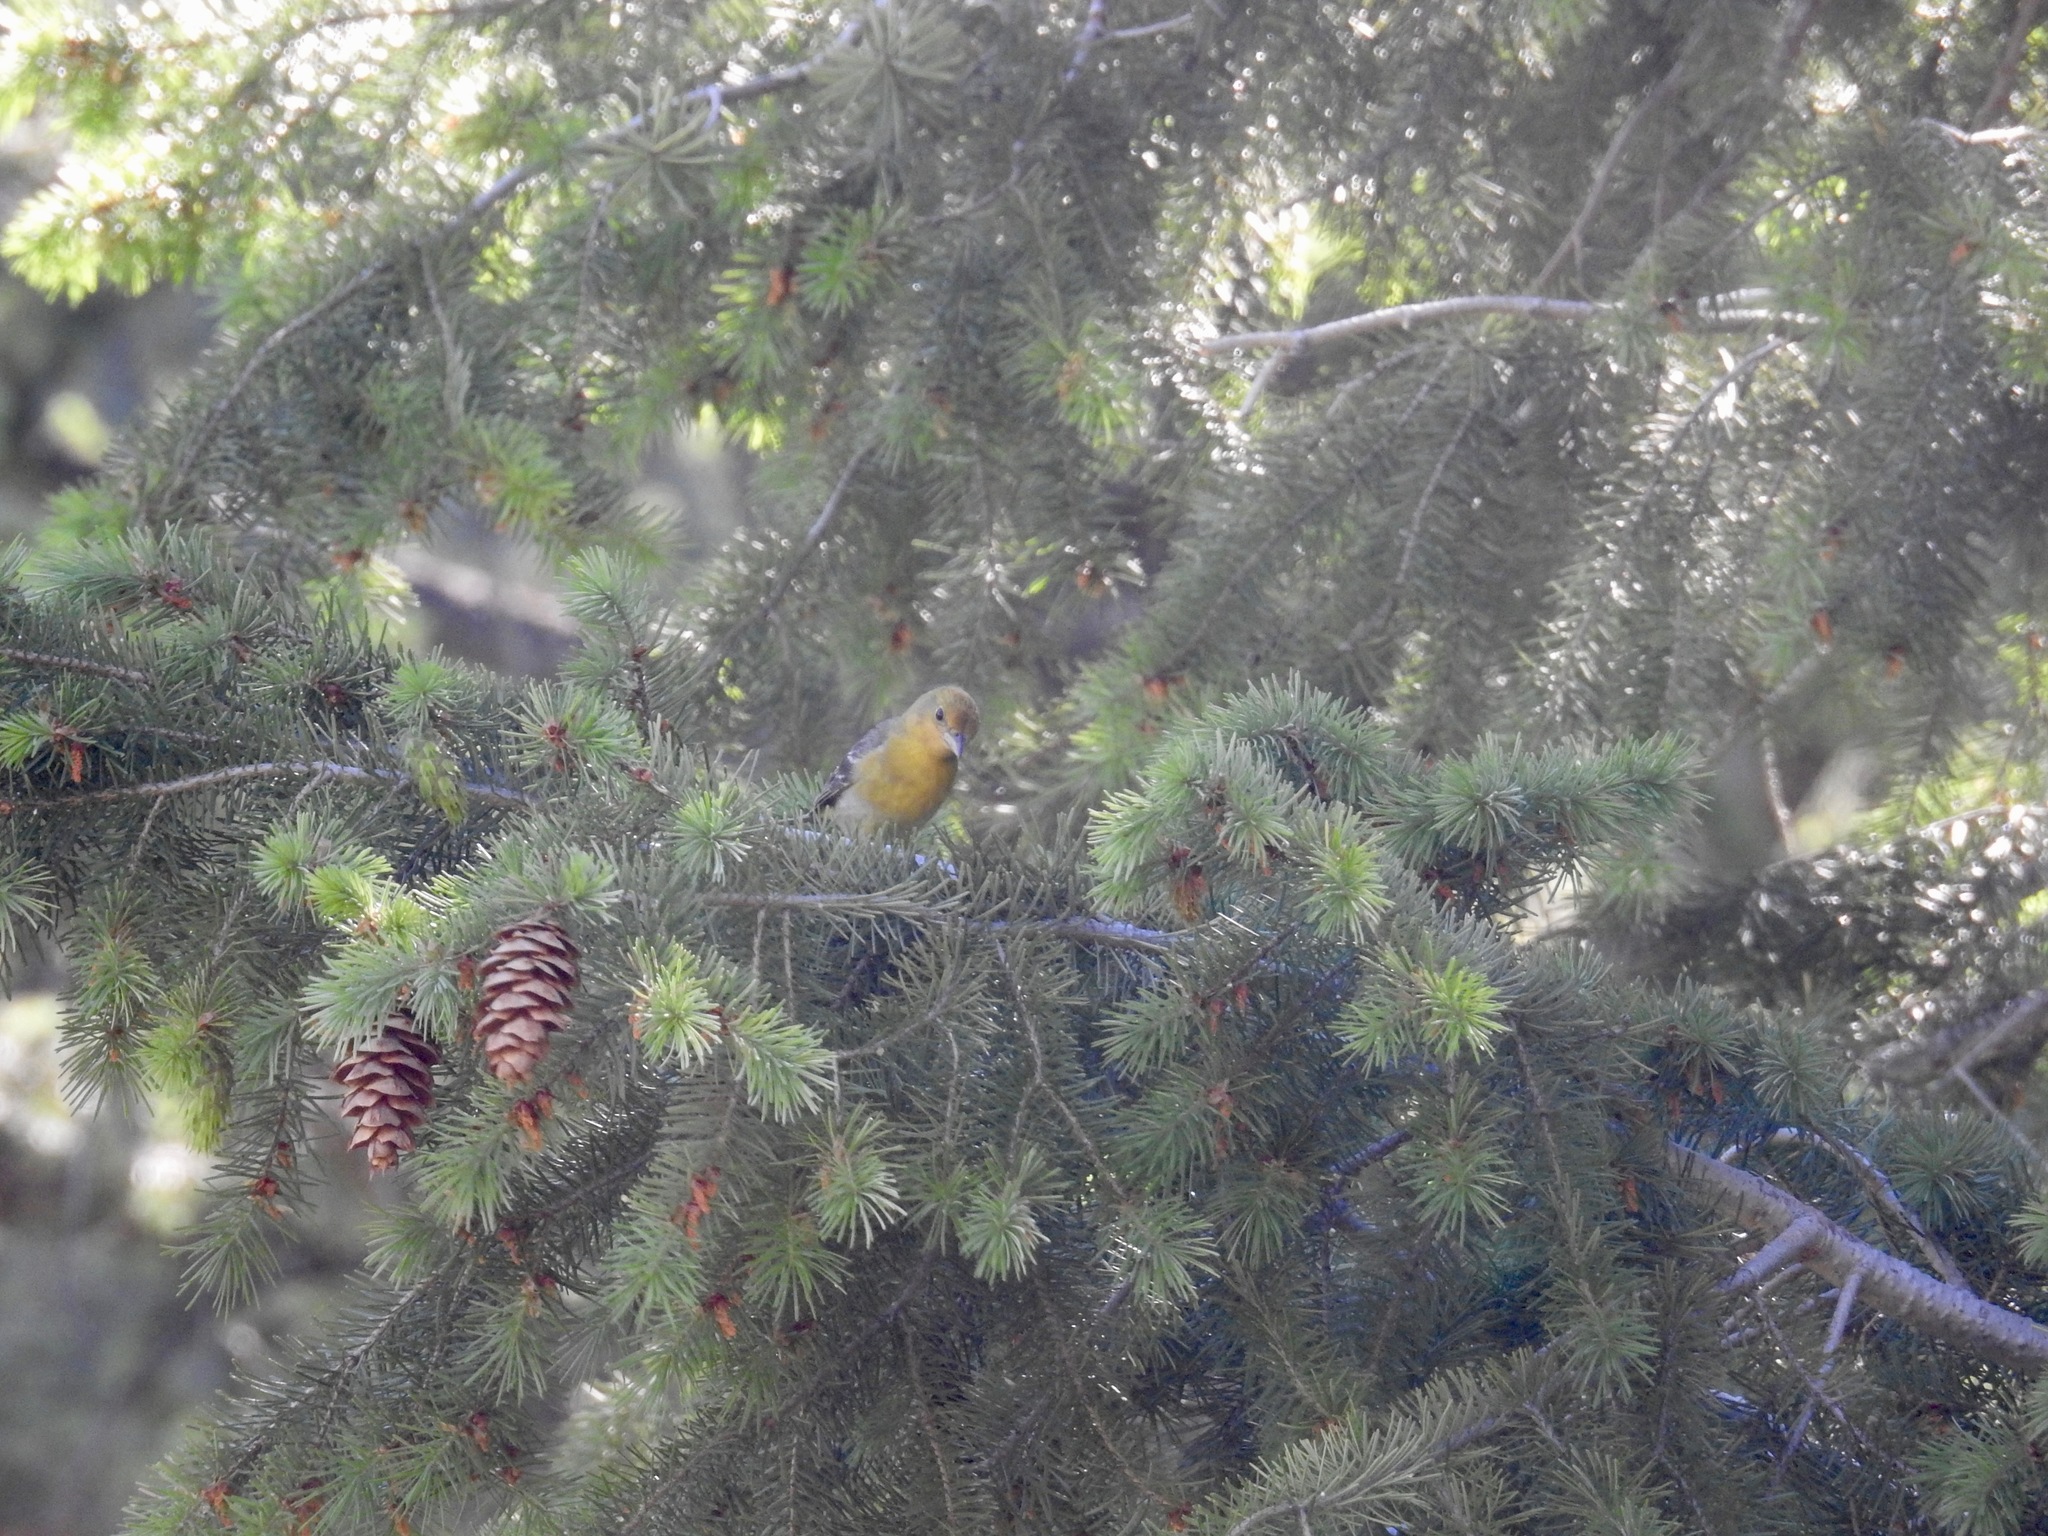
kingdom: Animalia
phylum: Chordata
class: Aves
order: Passeriformes
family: Icteridae
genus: Icterus
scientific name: Icterus bullockii
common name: Bullock's oriole
